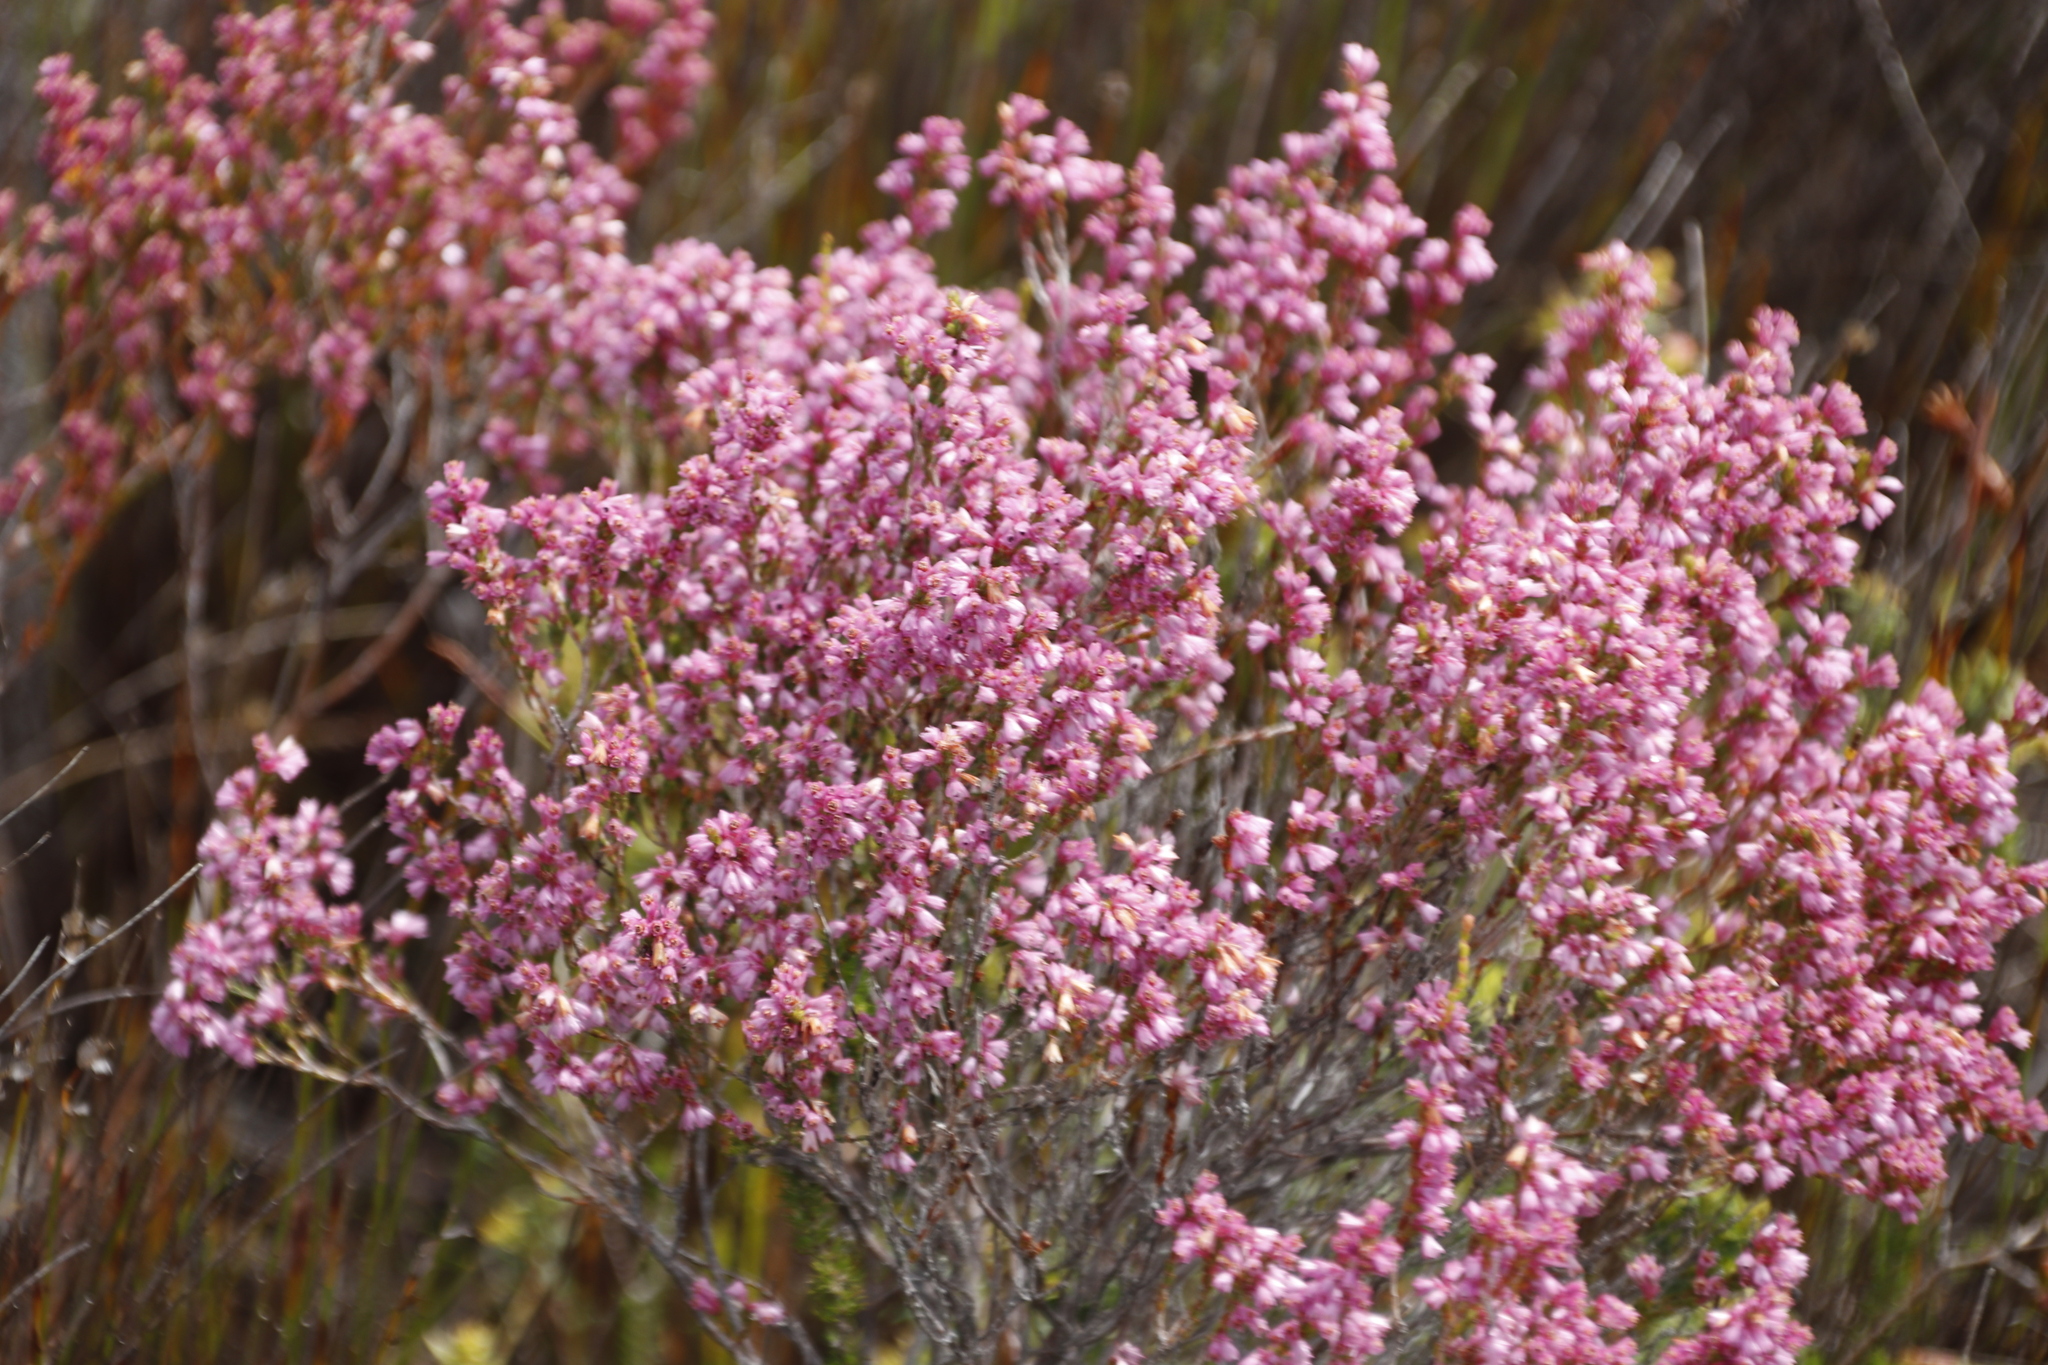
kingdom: Plantae
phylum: Tracheophyta
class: Magnoliopsida
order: Ericales
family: Ericaceae
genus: Erica
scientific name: Erica gnaphaloides
